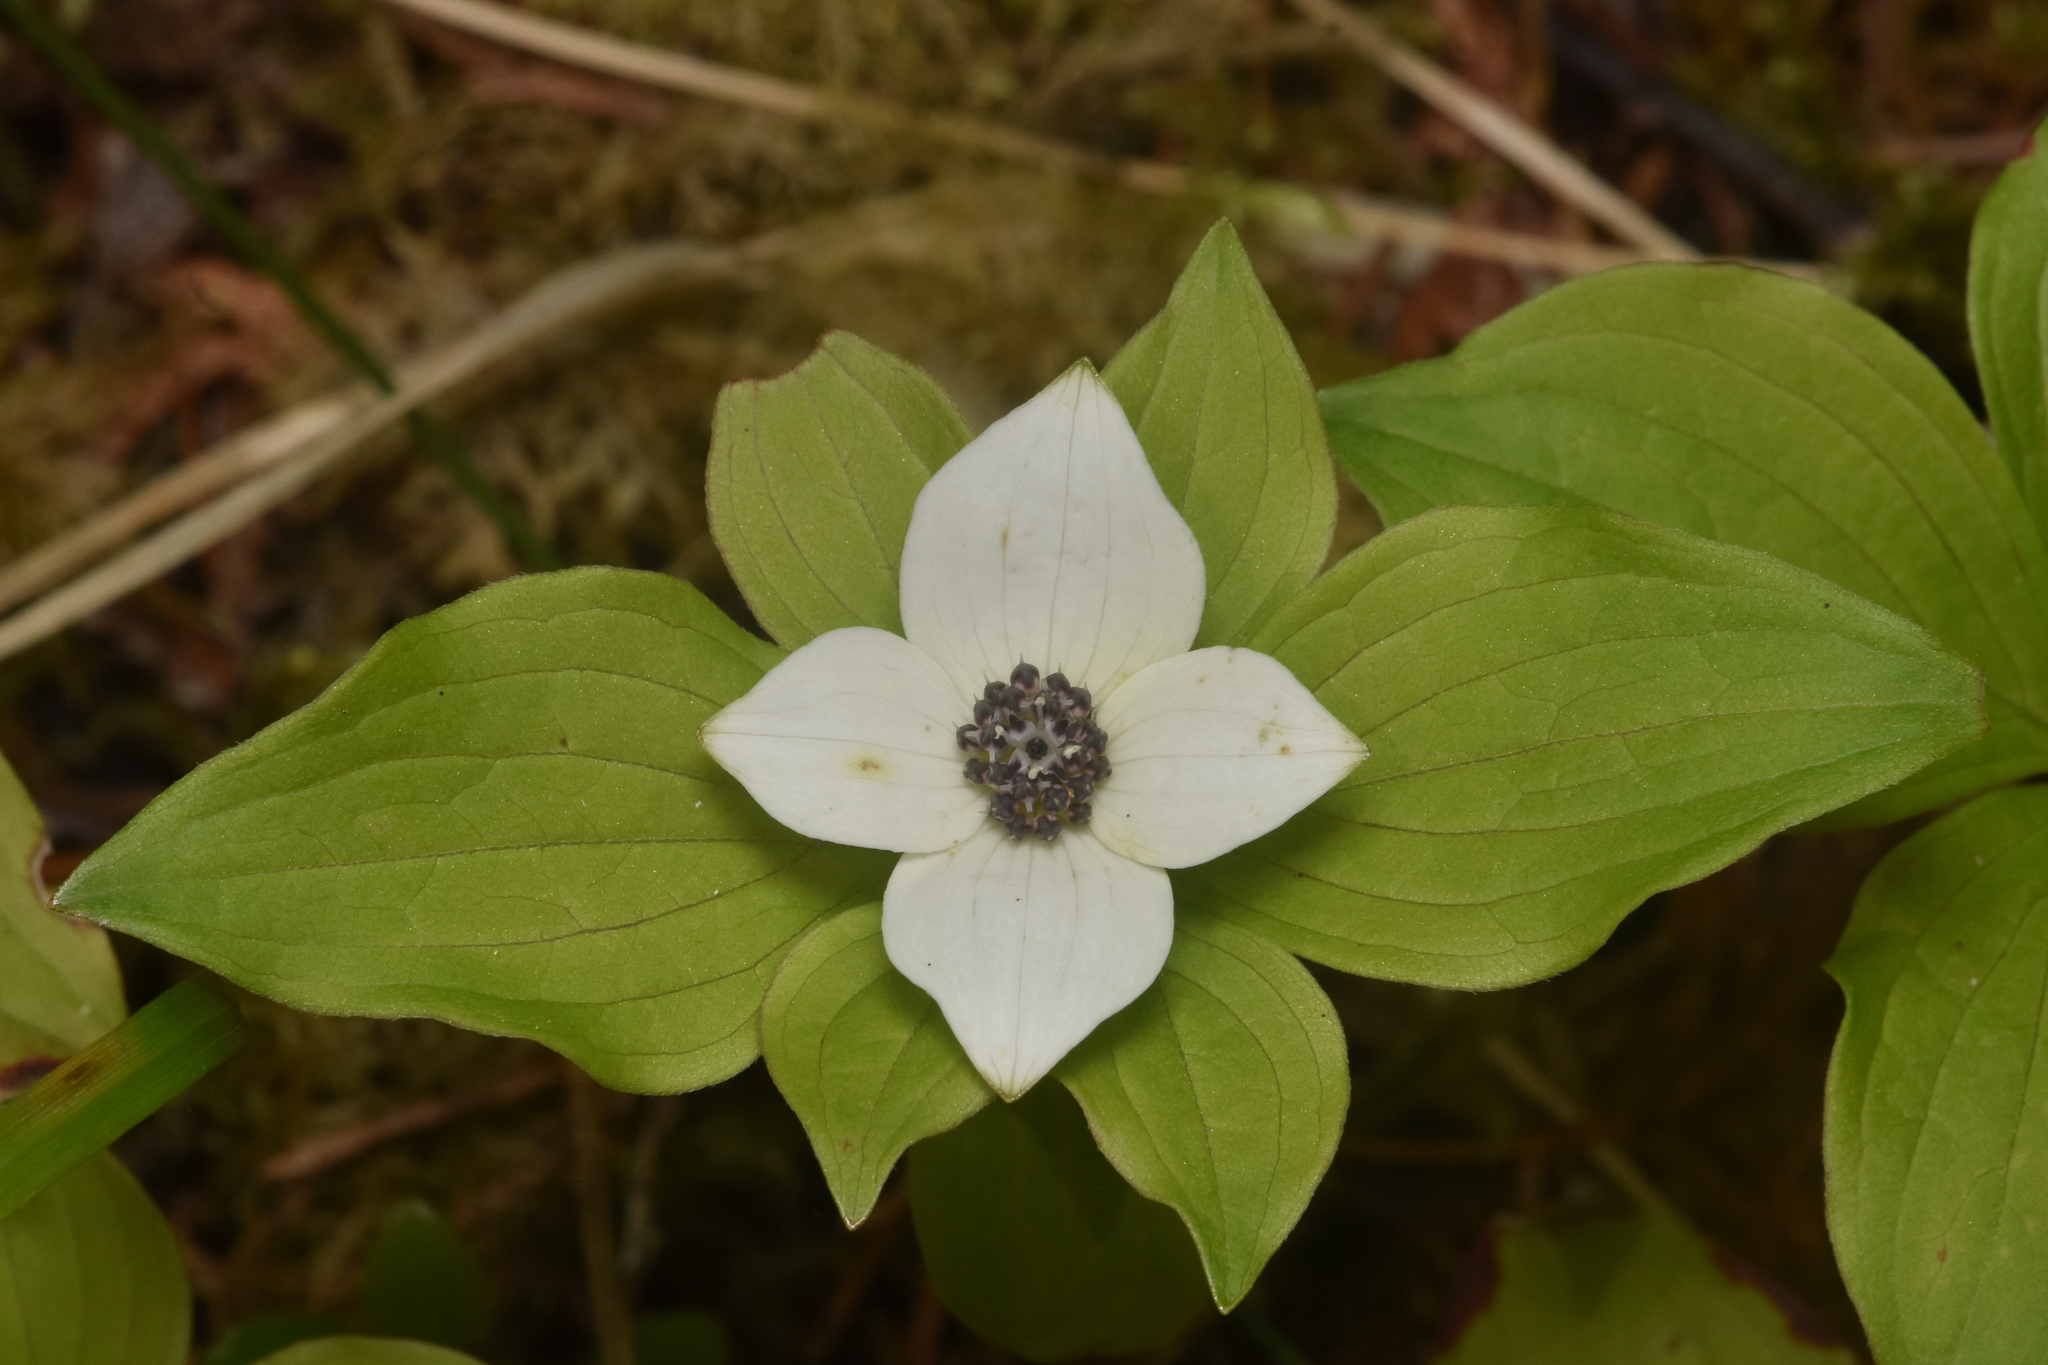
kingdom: Plantae
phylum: Tracheophyta
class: Magnoliopsida
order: Cornales
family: Cornaceae
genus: Cornus
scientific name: Cornus unalaschkensis
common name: Alaska bunchberry
